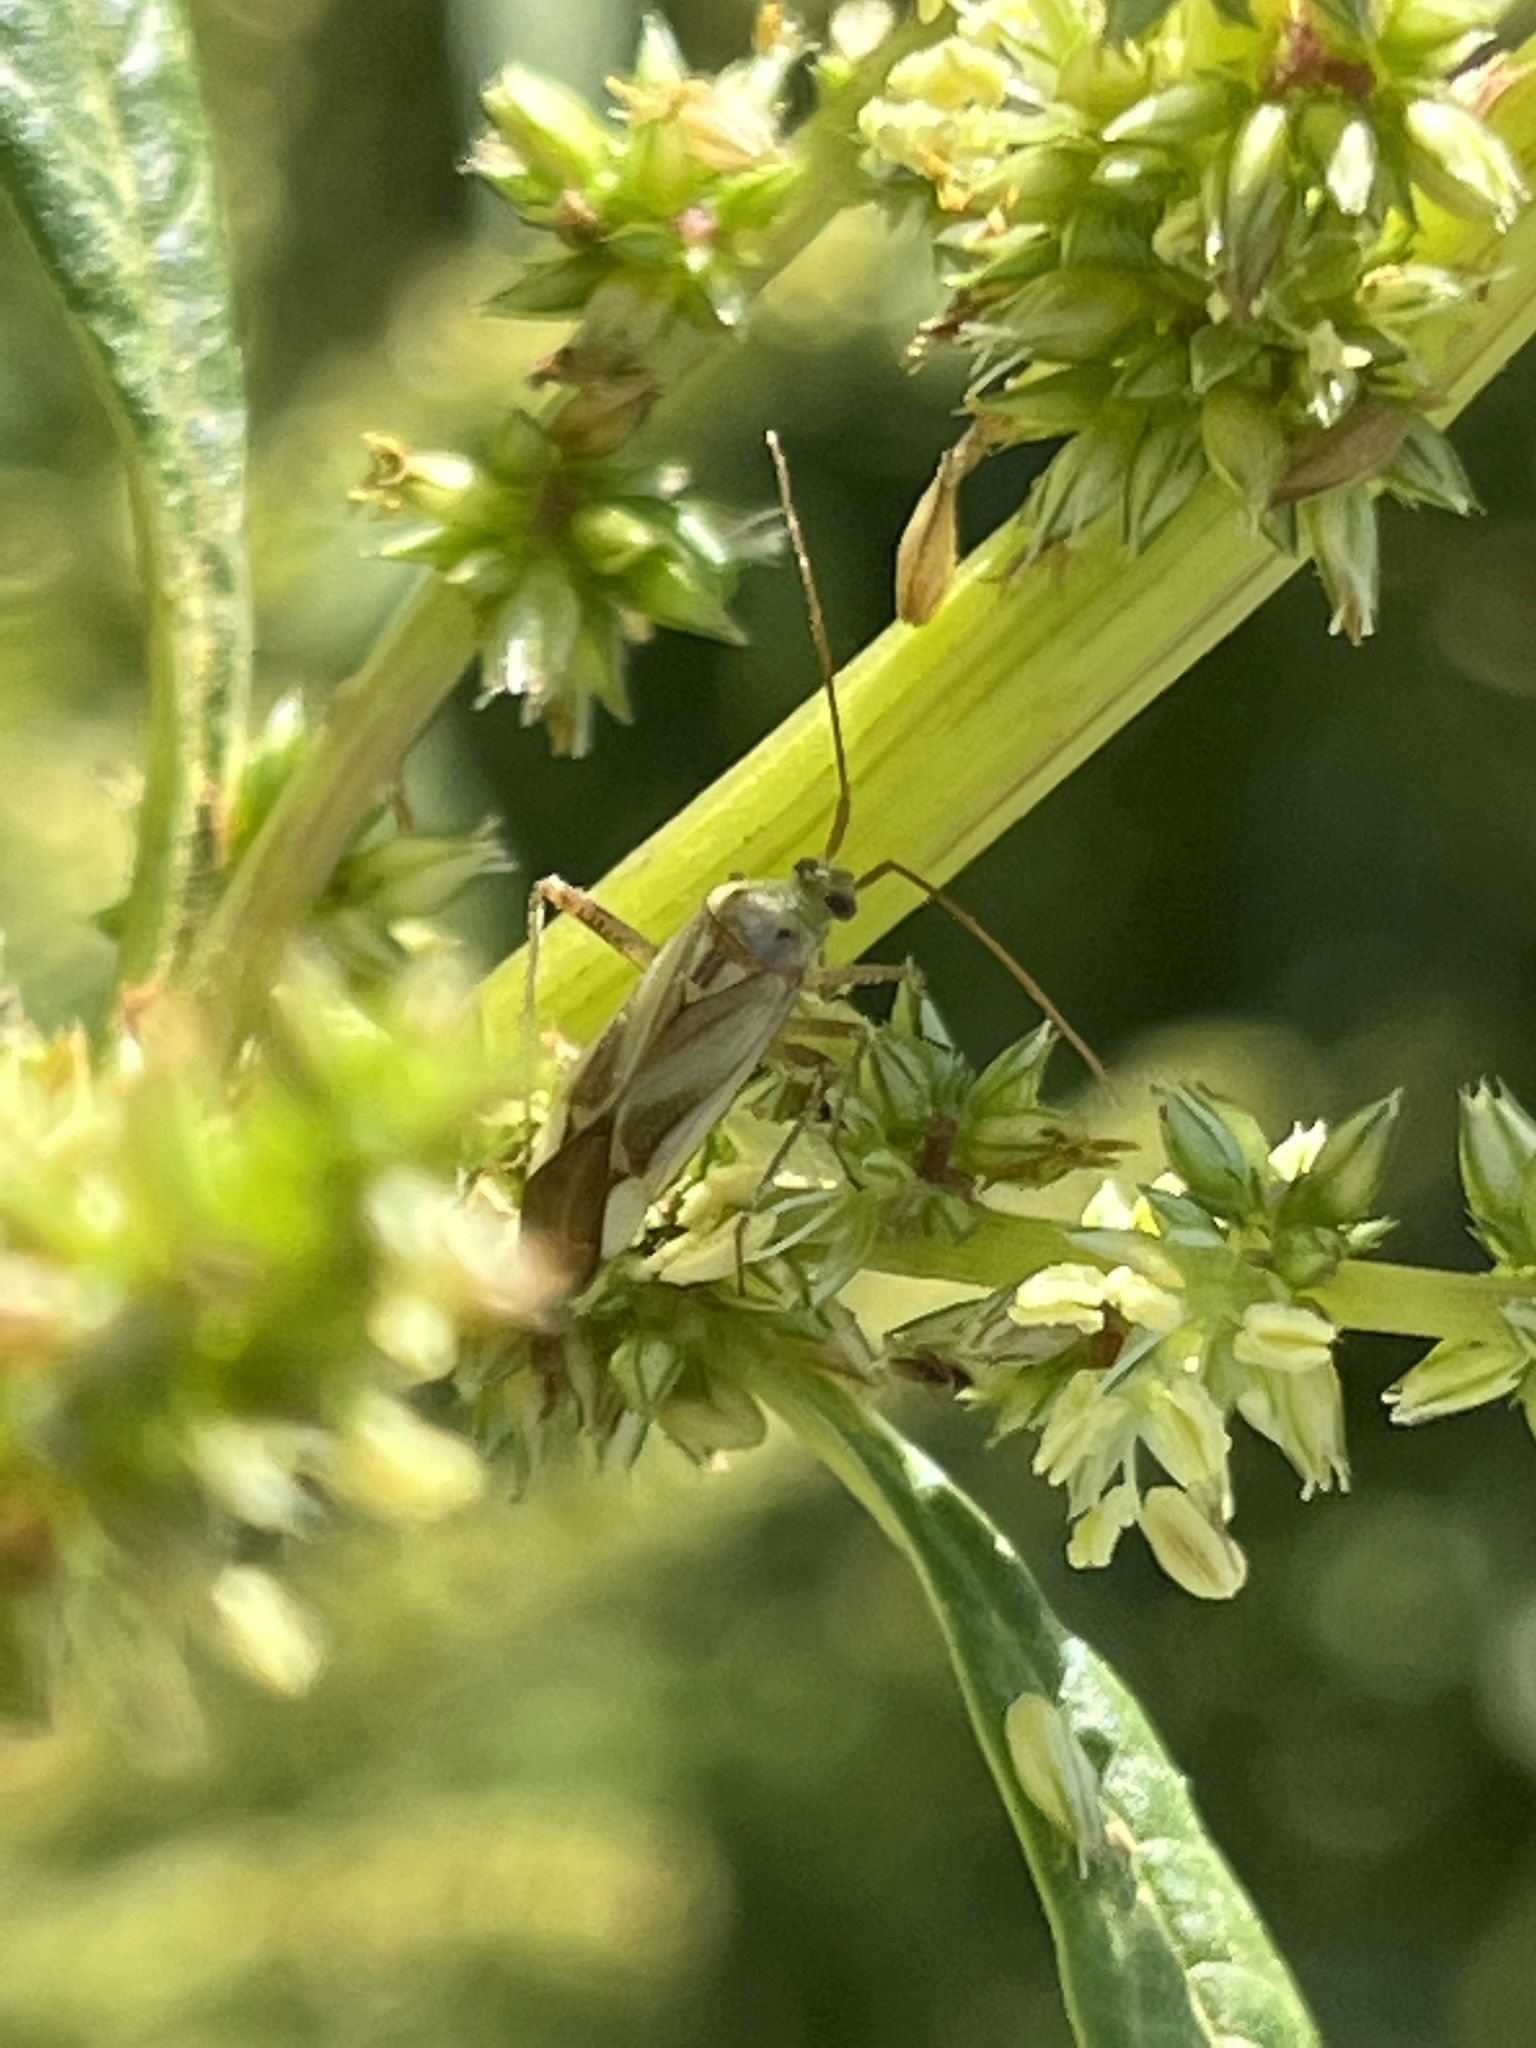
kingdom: Animalia
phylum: Arthropoda
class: Insecta
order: Hemiptera
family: Miridae
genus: Adelphocoris
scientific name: Adelphocoris lineolatus
